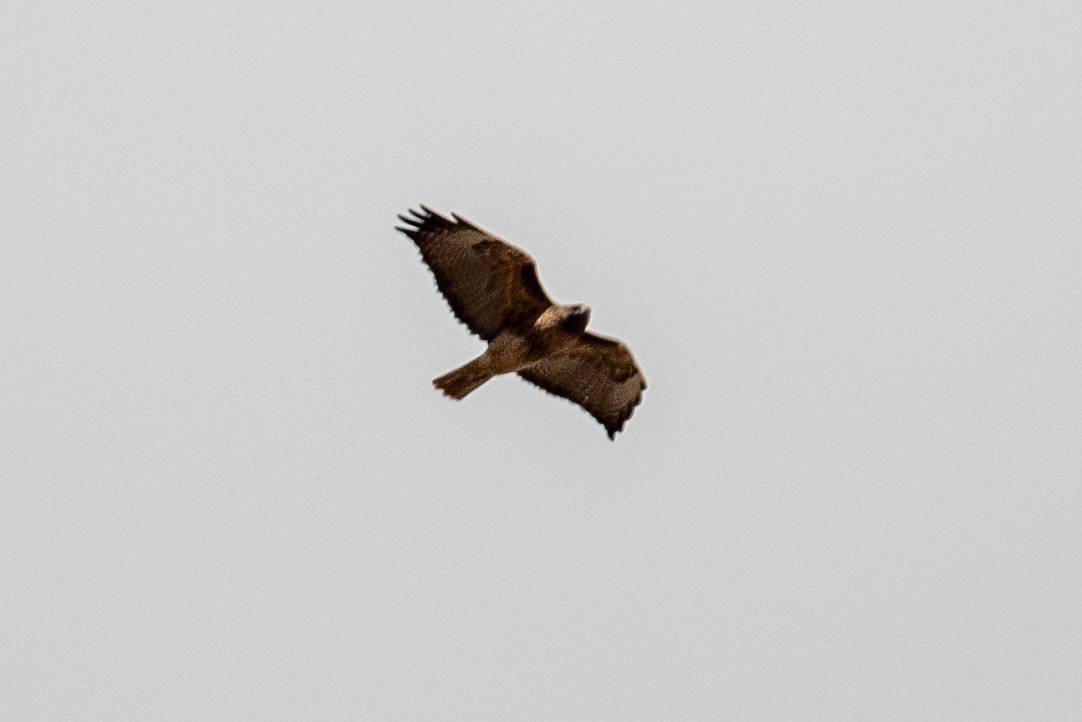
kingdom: Animalia
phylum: Chordata
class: Aves
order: Accipitriformes
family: Accipitridae
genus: Buteo
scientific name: Buteo jamaicensis
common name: Red-tailed hawk
